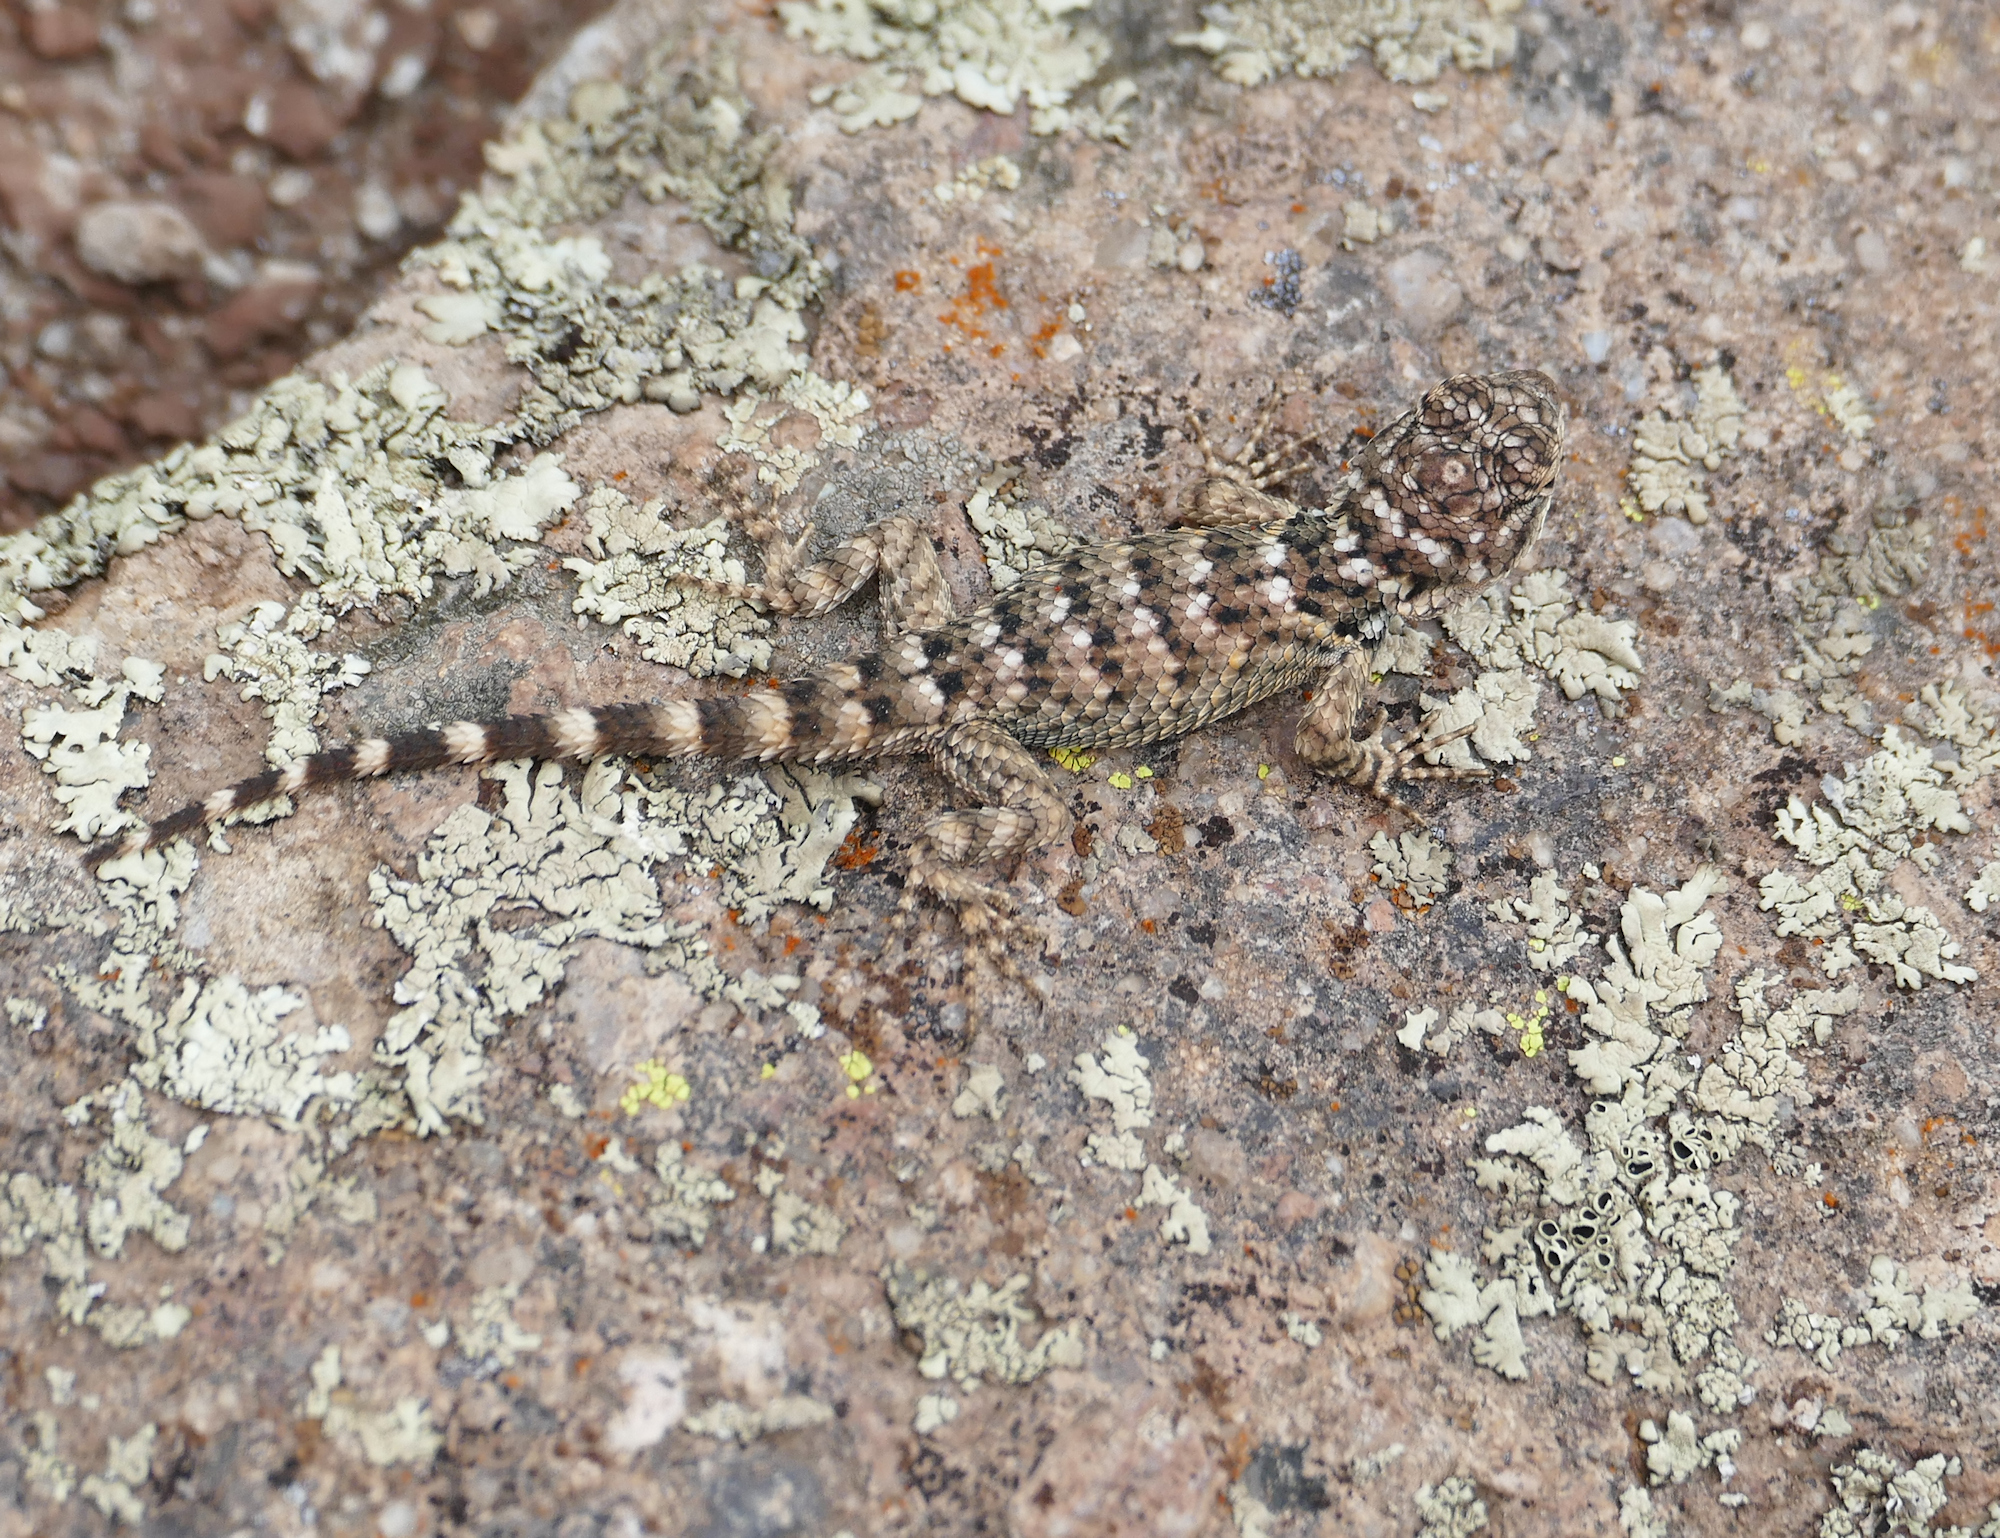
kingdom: Animalia
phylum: Chordata
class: Squamata
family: Phrynosomatidae
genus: Sceloporus
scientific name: Sceloporus poinsettii
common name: Crevice spiny lizard
